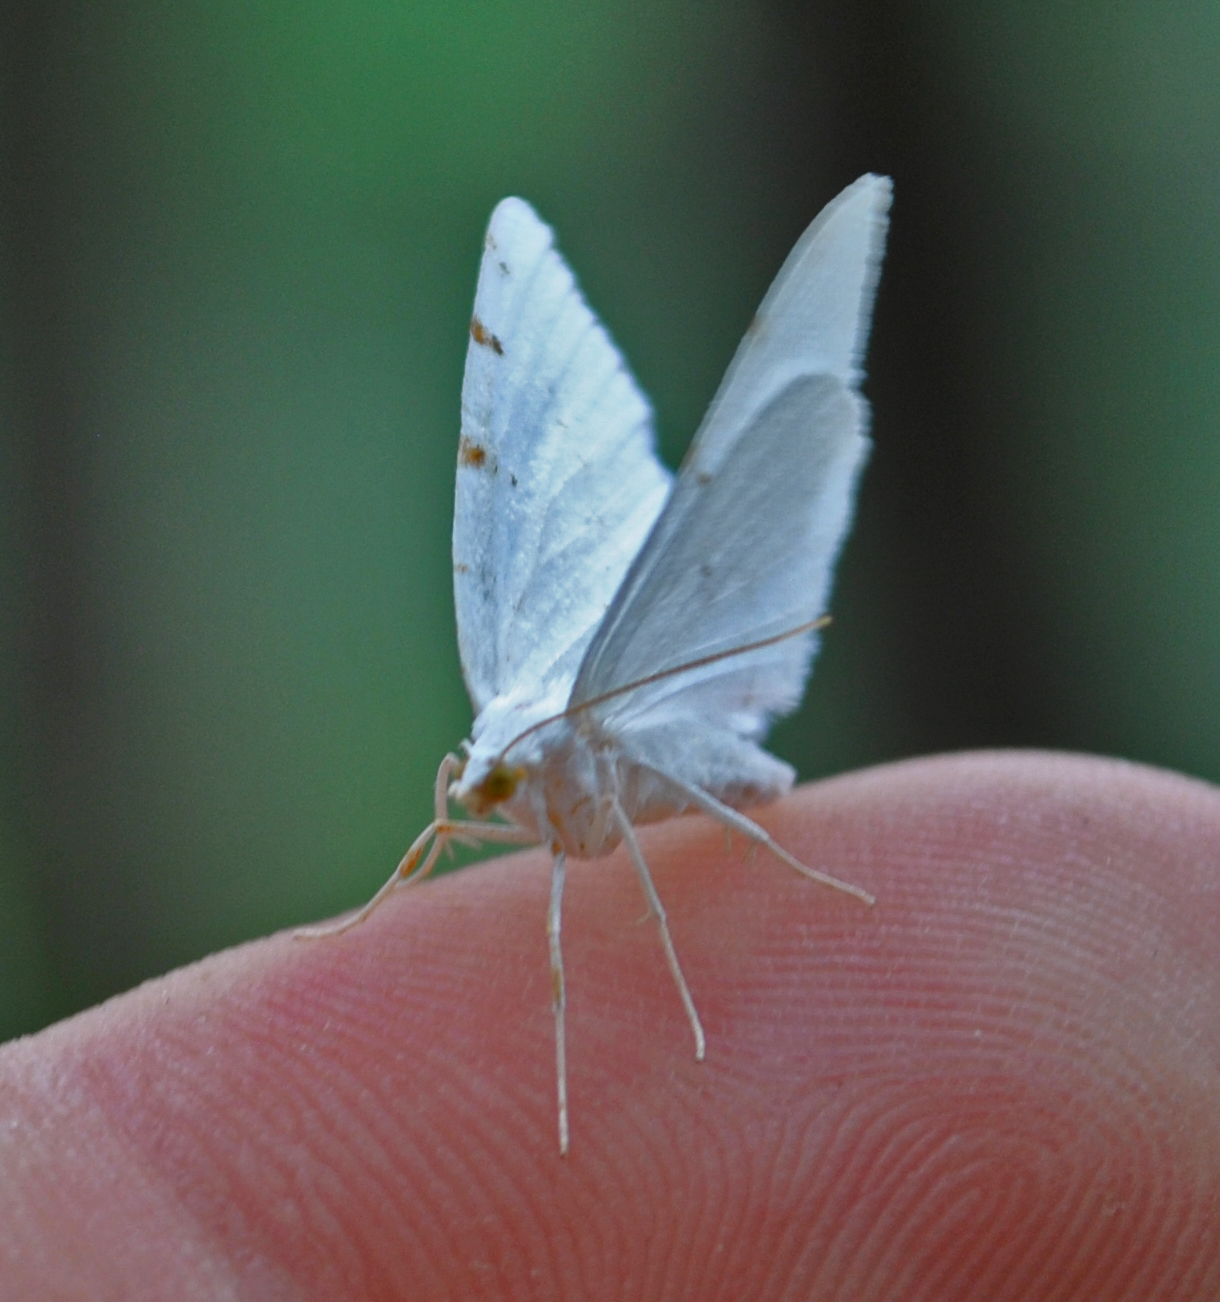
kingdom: Animalia
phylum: Arthropoda
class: Insecta
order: Lepidoptera
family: Geometridae
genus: Macaria
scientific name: Macaria pustularia
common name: Lesser maple spanworm moth
